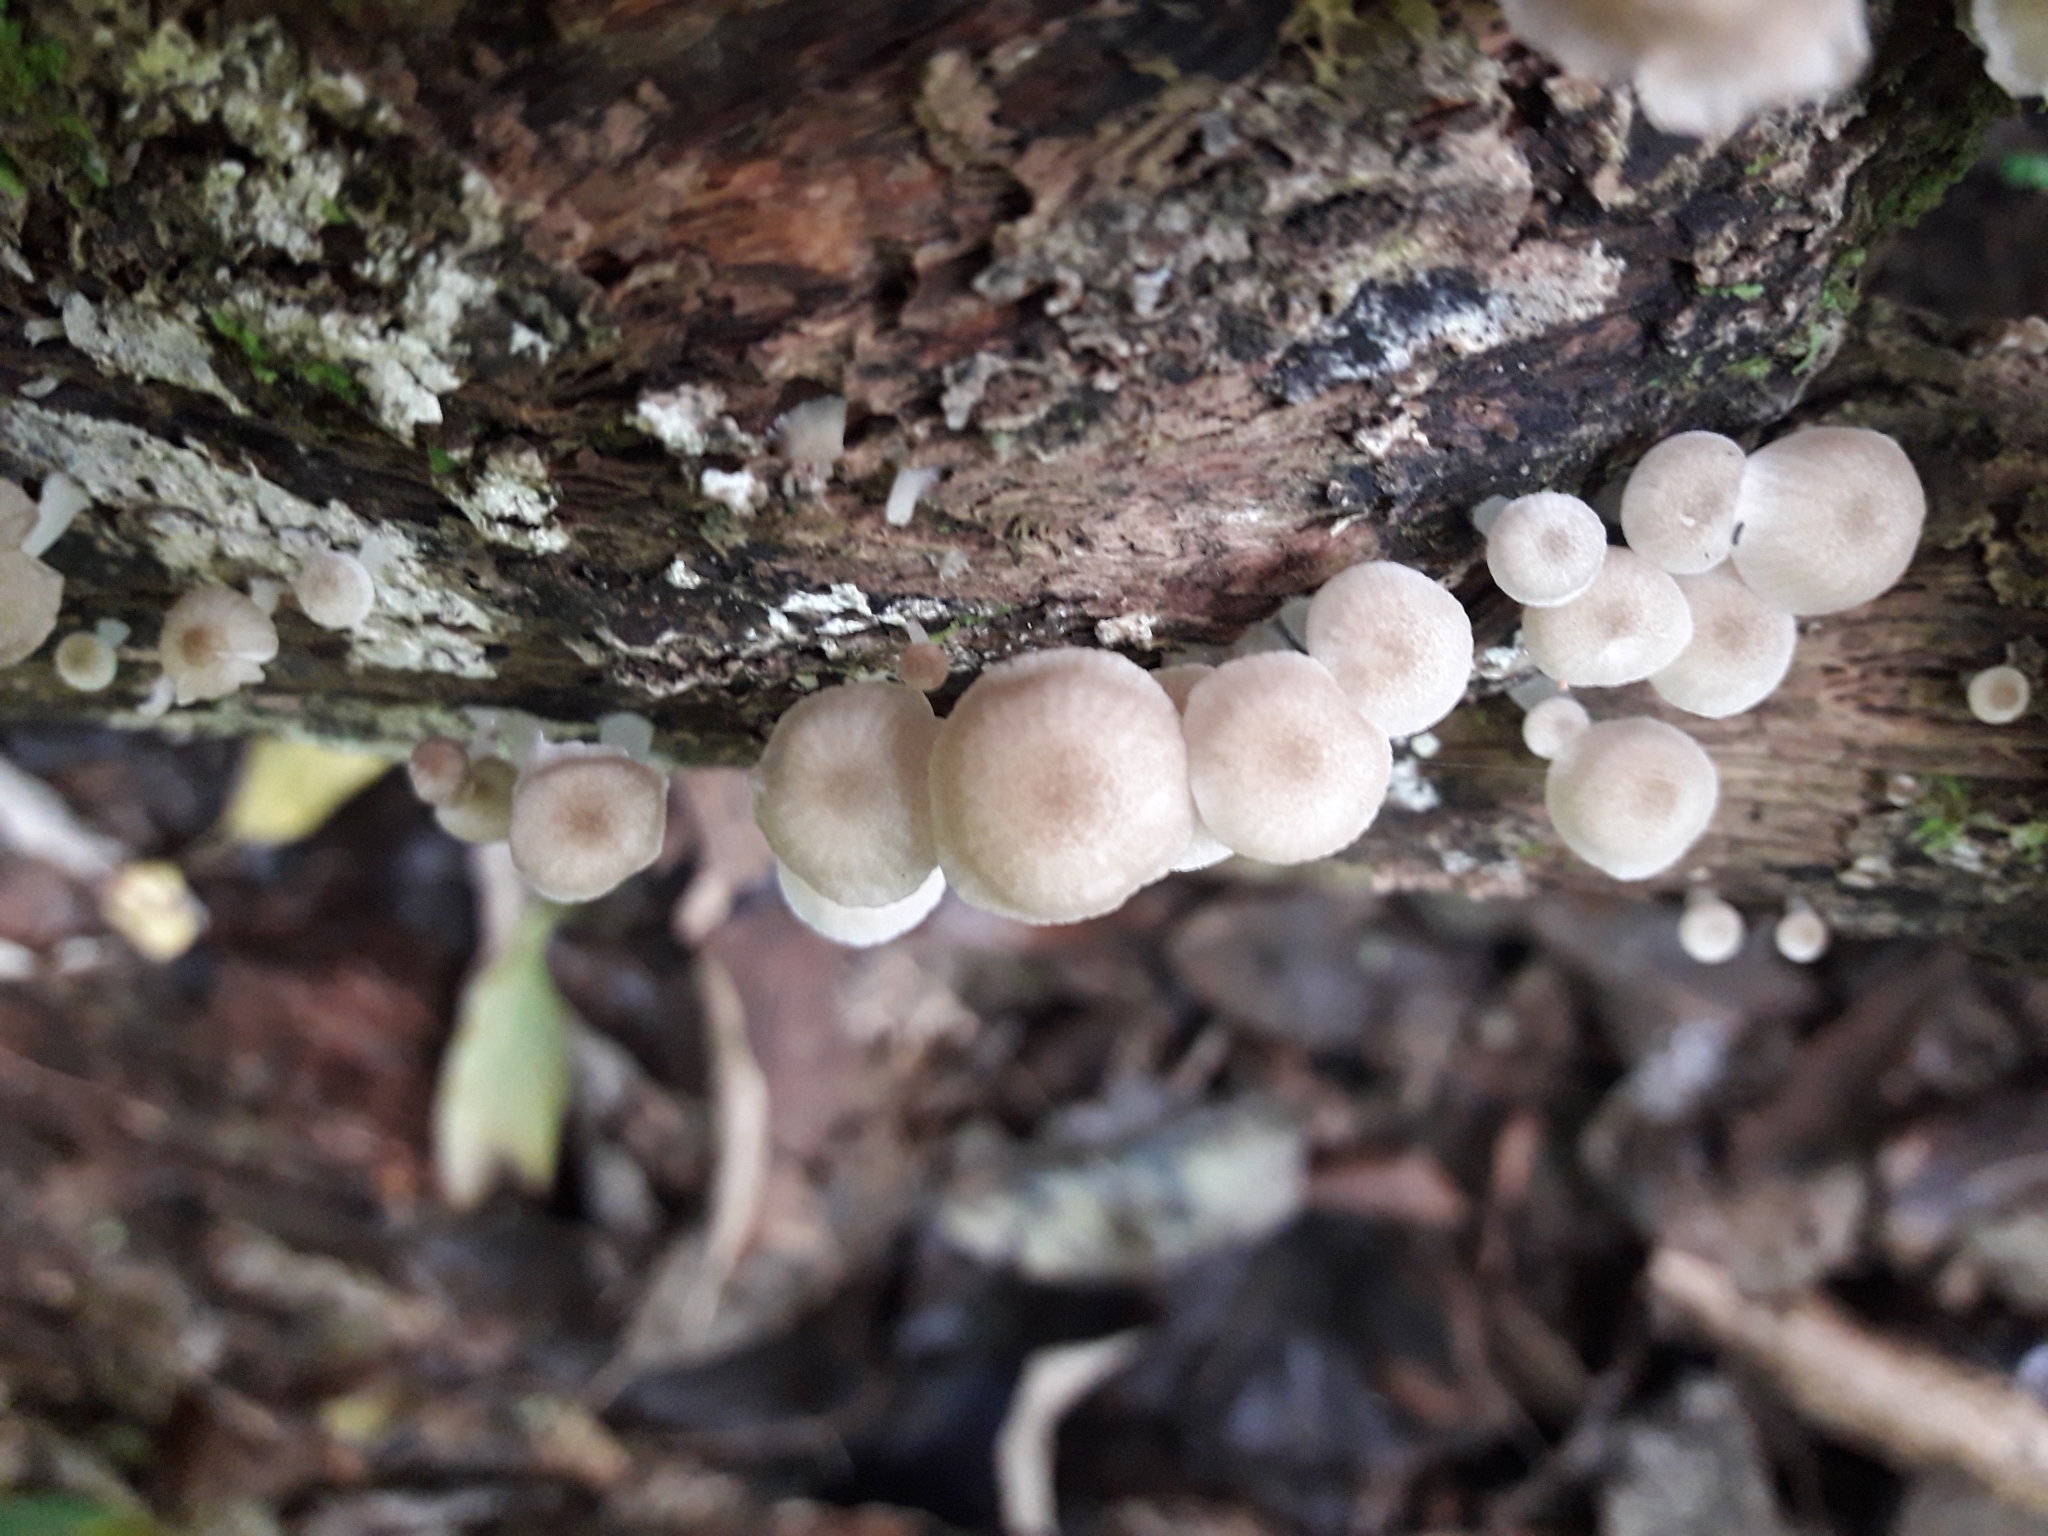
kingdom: Fungi
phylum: Basidiomycota
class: Agaricomycetes
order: Agaricales
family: Mycenaceae
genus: Roridomyces
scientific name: Roridomyces austrororidus
